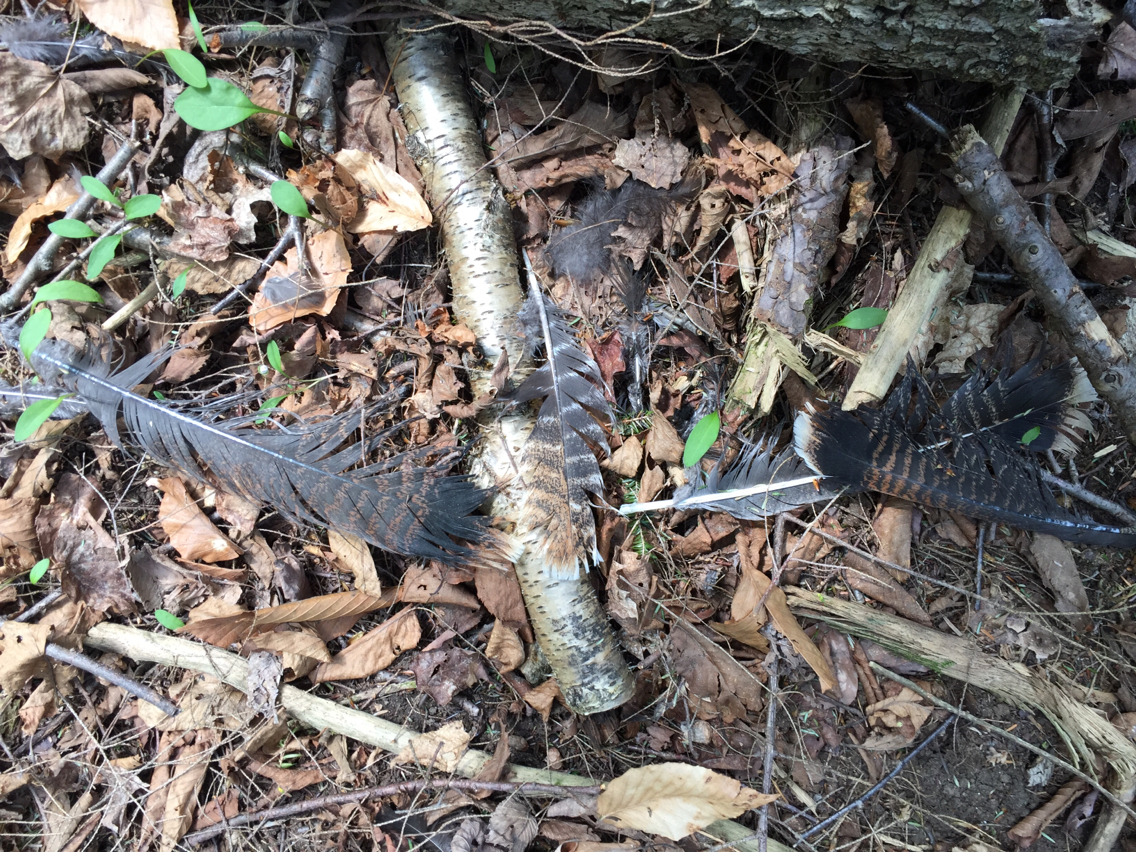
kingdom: Animalia
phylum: Chordata
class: Aves
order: Galliformes
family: Phasianidae
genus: Meleagris
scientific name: Meleagris gallopavo
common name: Wild turkey
